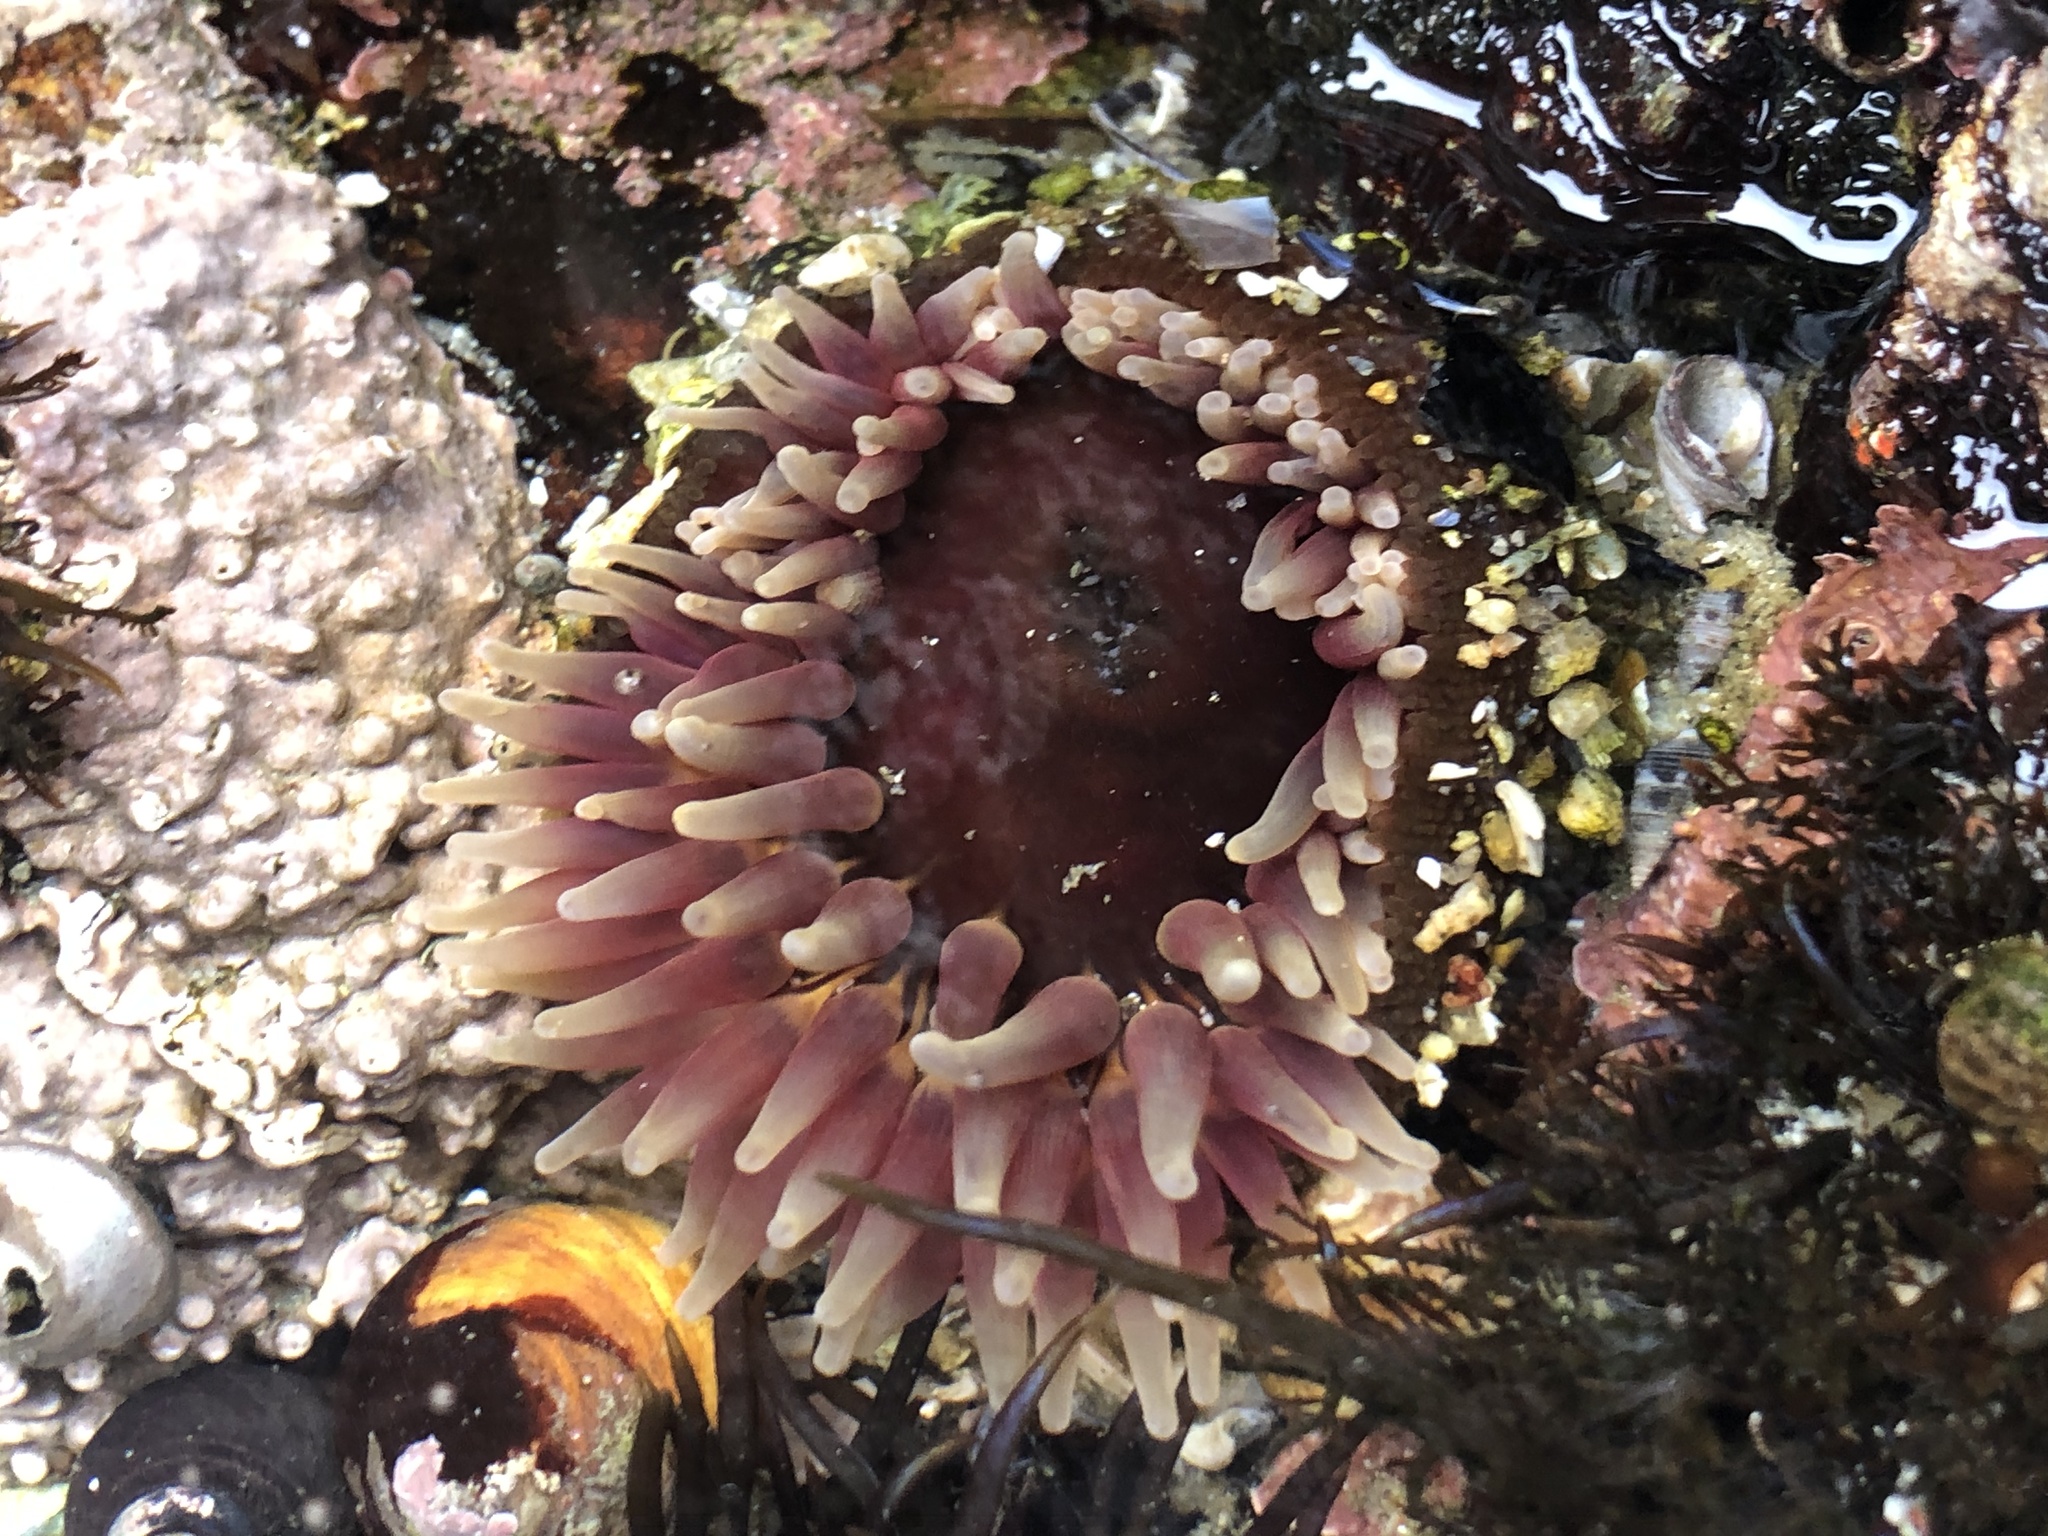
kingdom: Animalia
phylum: Cnidaria
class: Anthozoa
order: Actiniaria
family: Actiniidae
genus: Urticina
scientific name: Urticina clandestina
